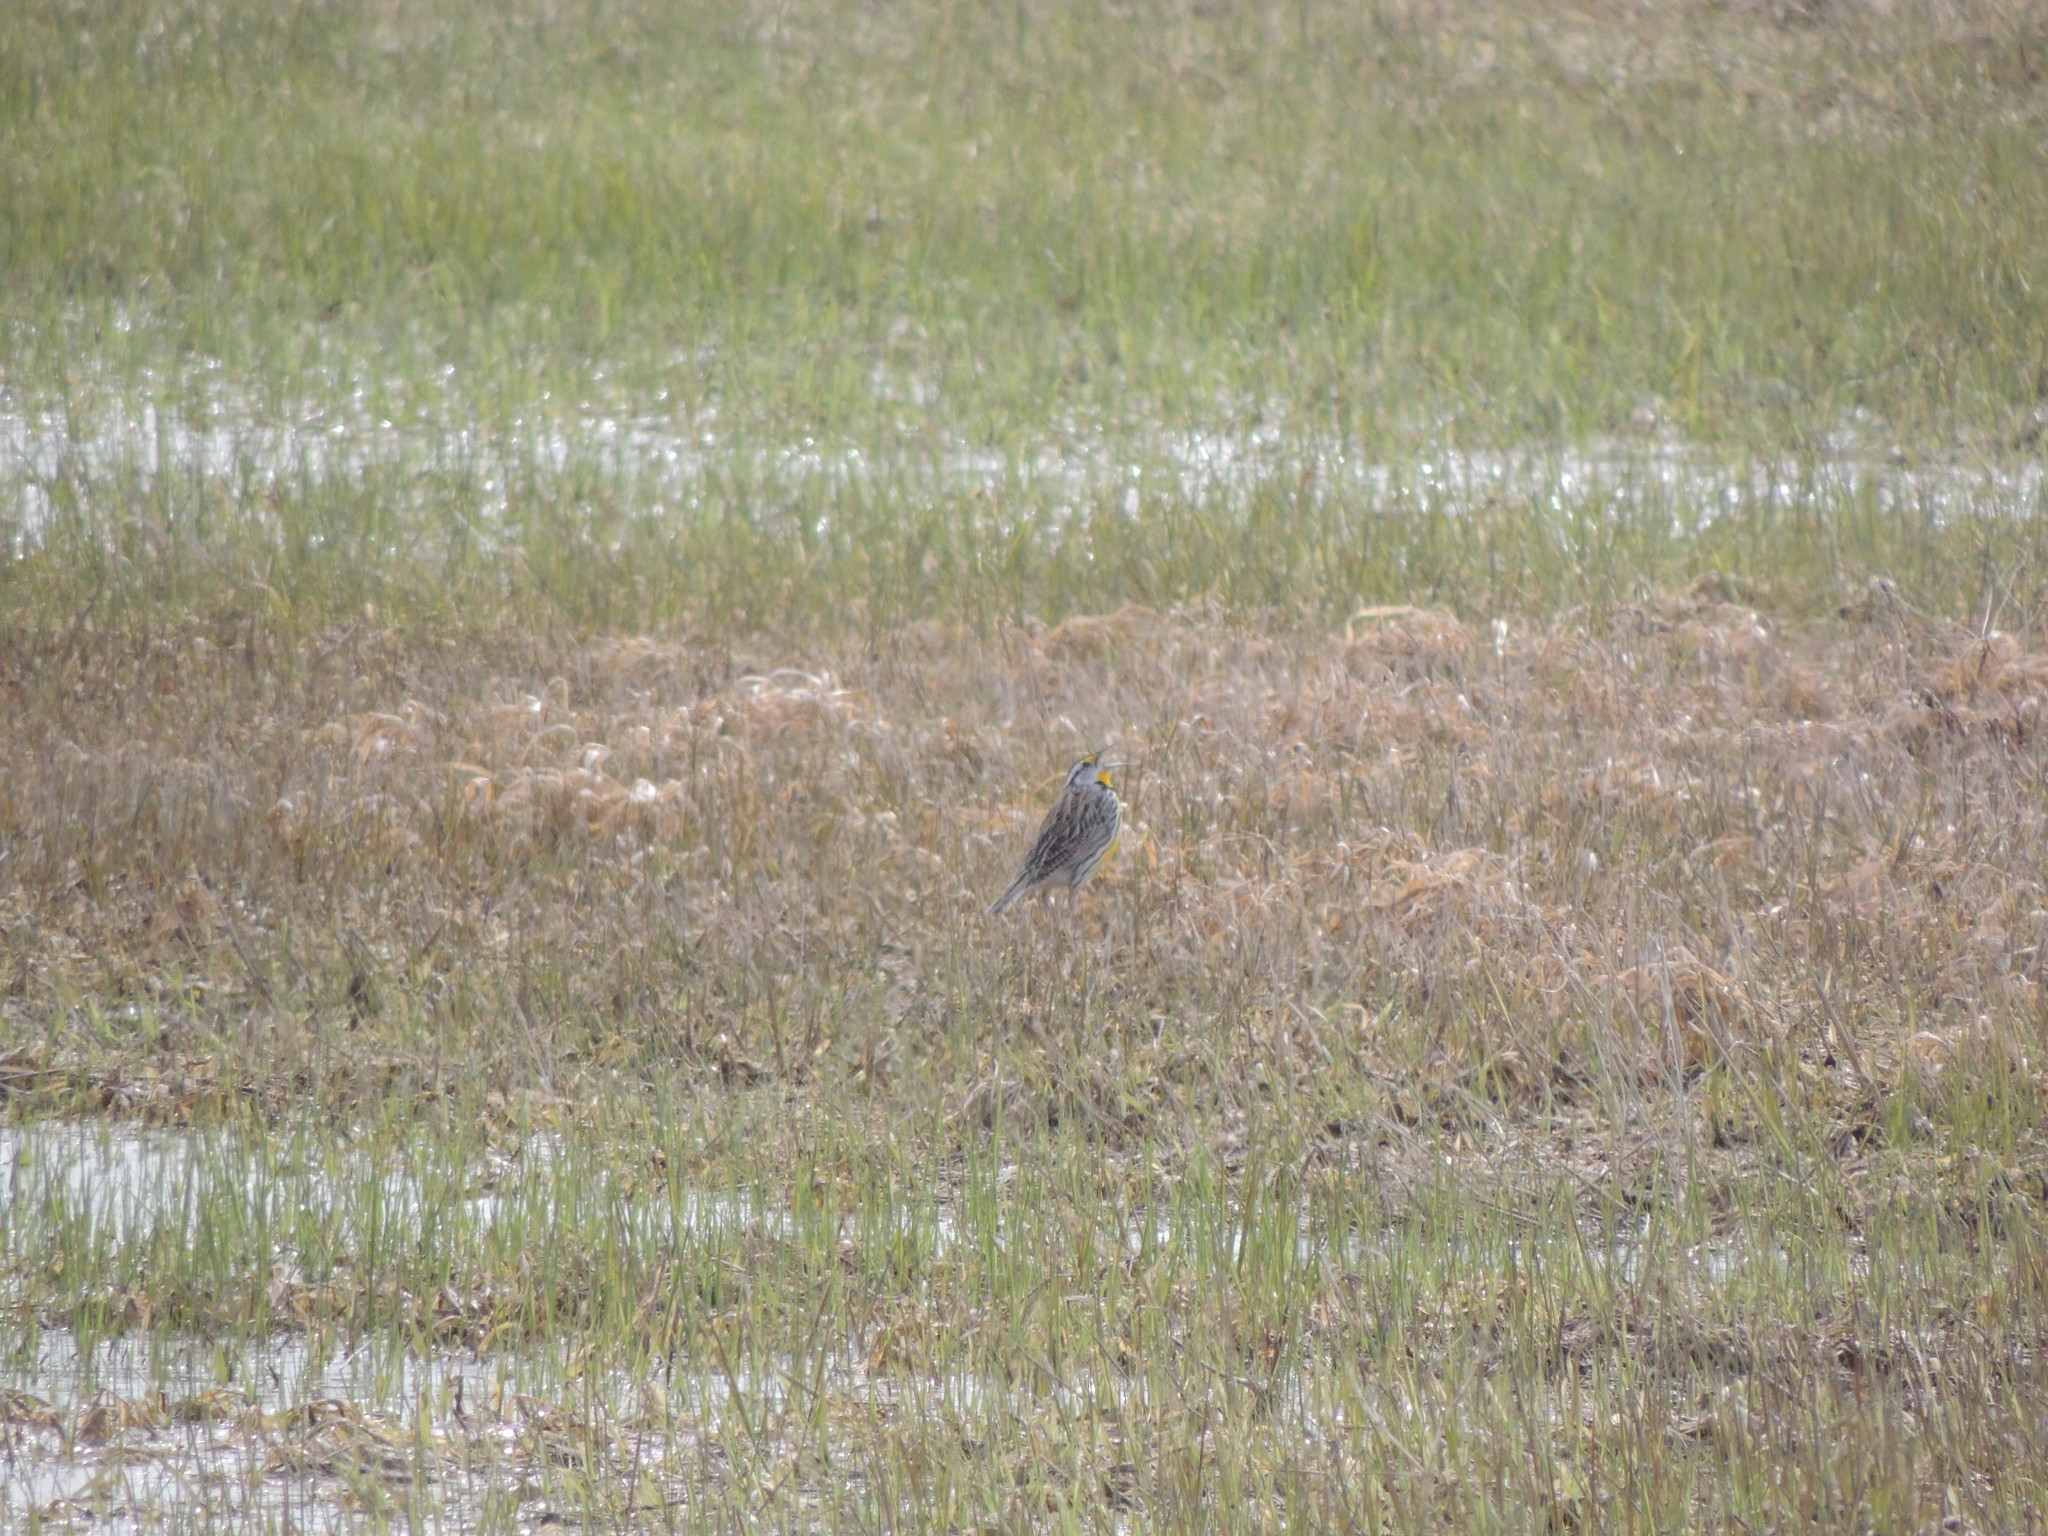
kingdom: Animalia
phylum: Chordata
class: Aves
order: Passeriformes
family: Icteridae
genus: Sturnella
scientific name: Sturnella magna
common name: Eastern meadowlark
